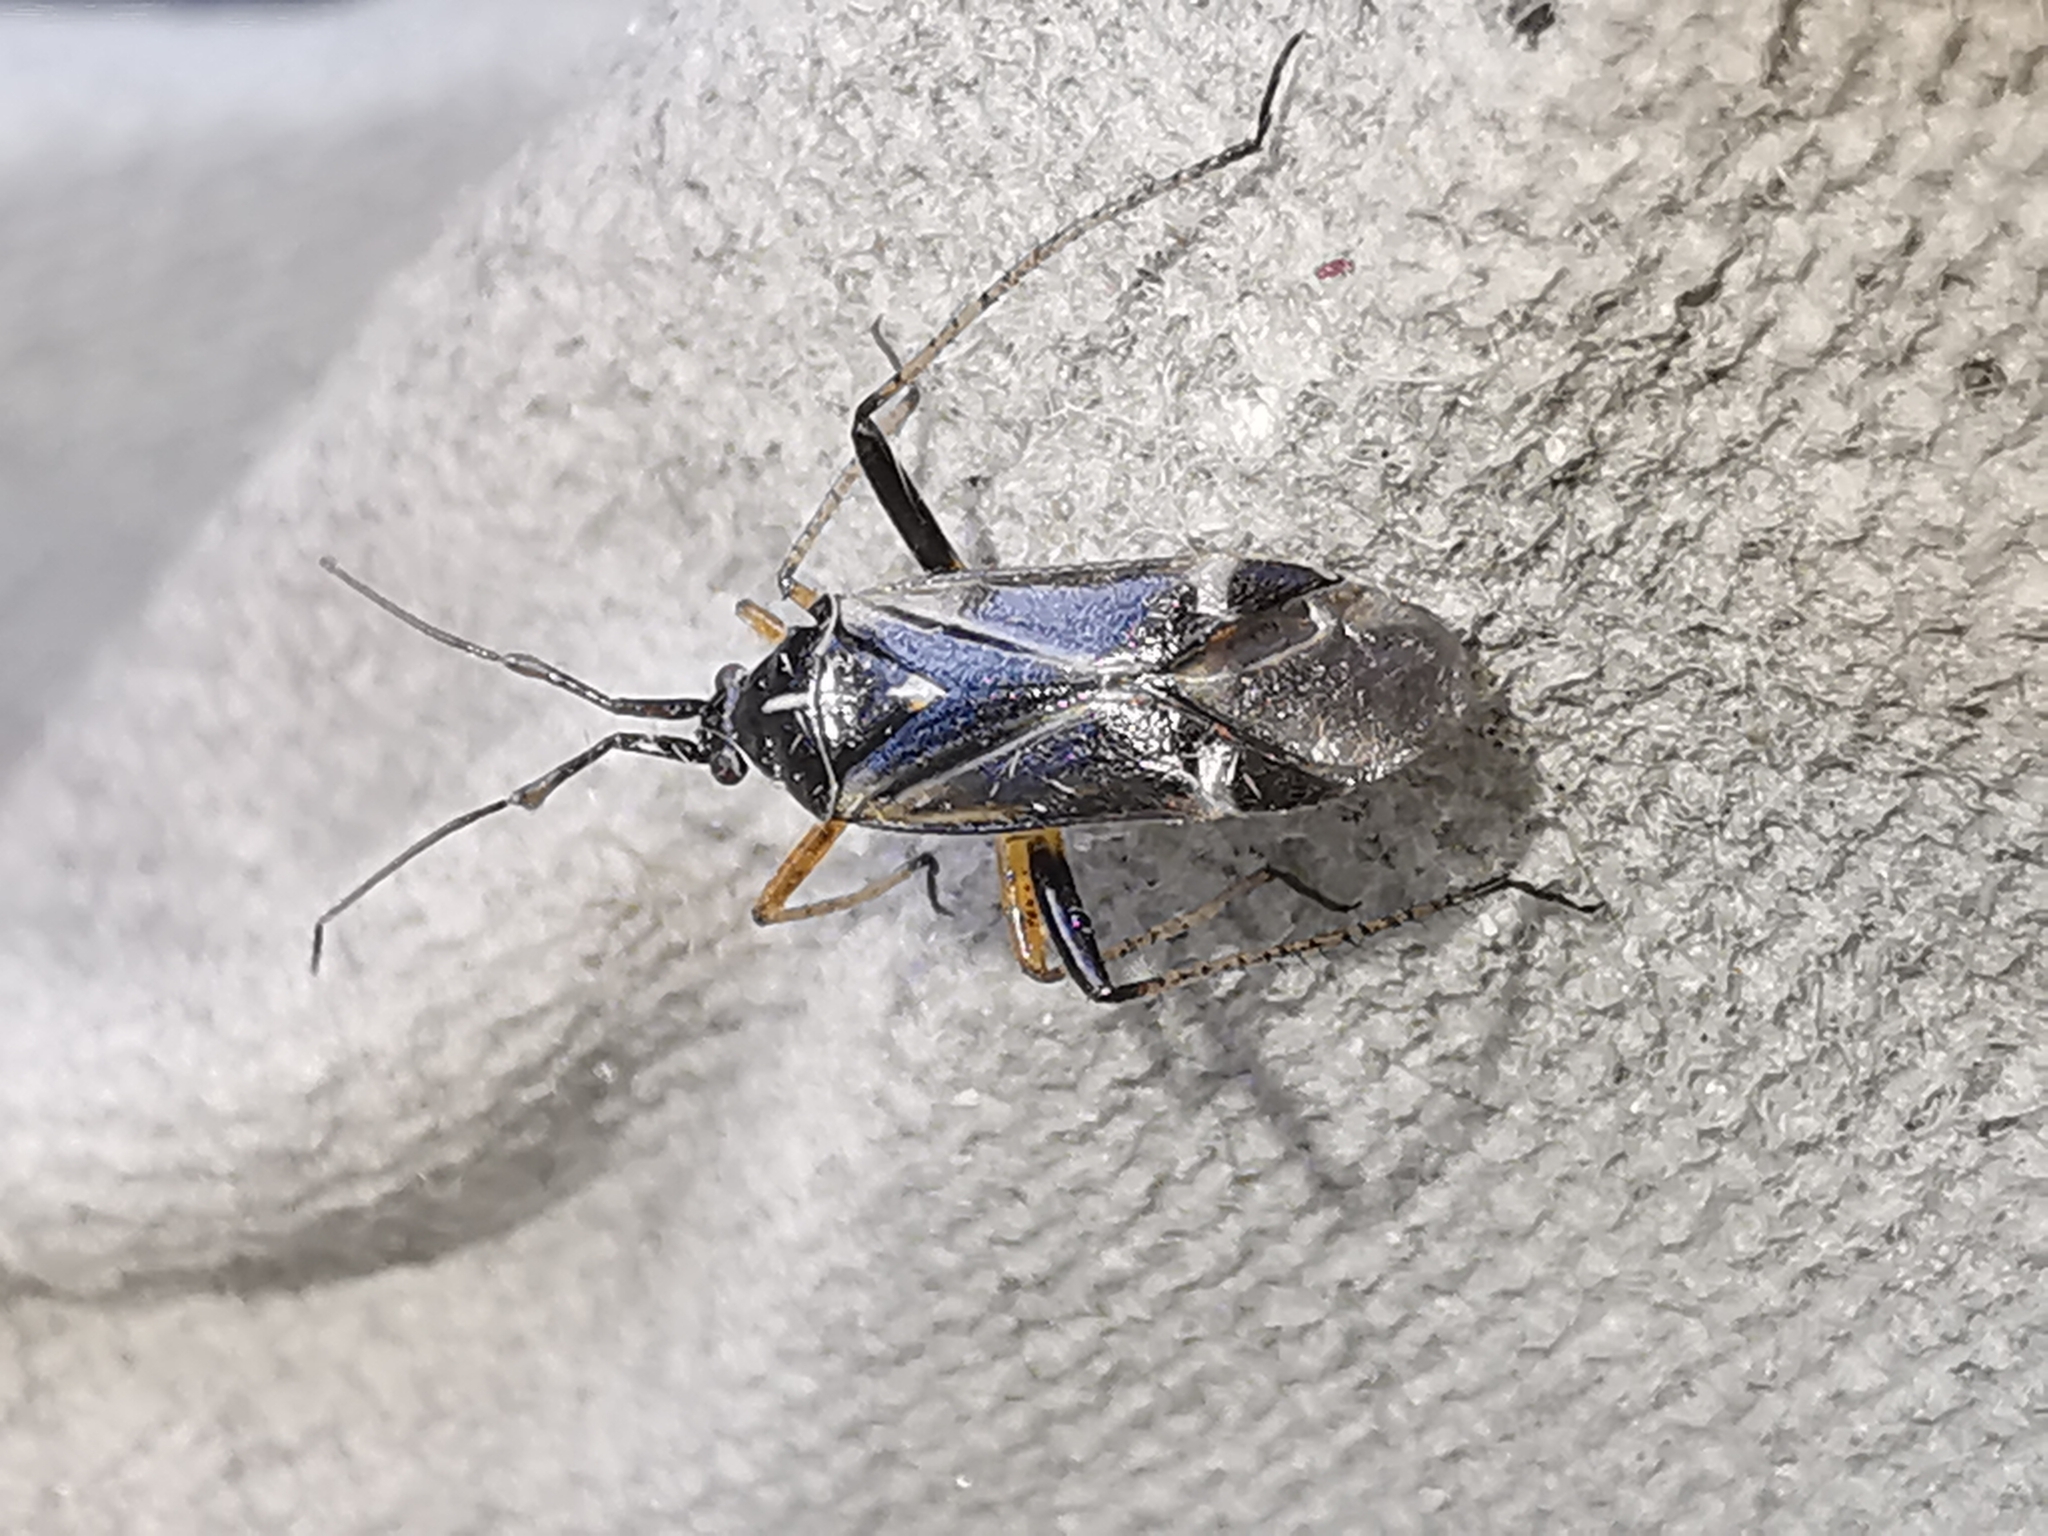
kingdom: Animalia
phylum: Arthropoda
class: Insecta
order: Hemiptera
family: Miridae
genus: Harpocera
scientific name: Harpocera thoracica
